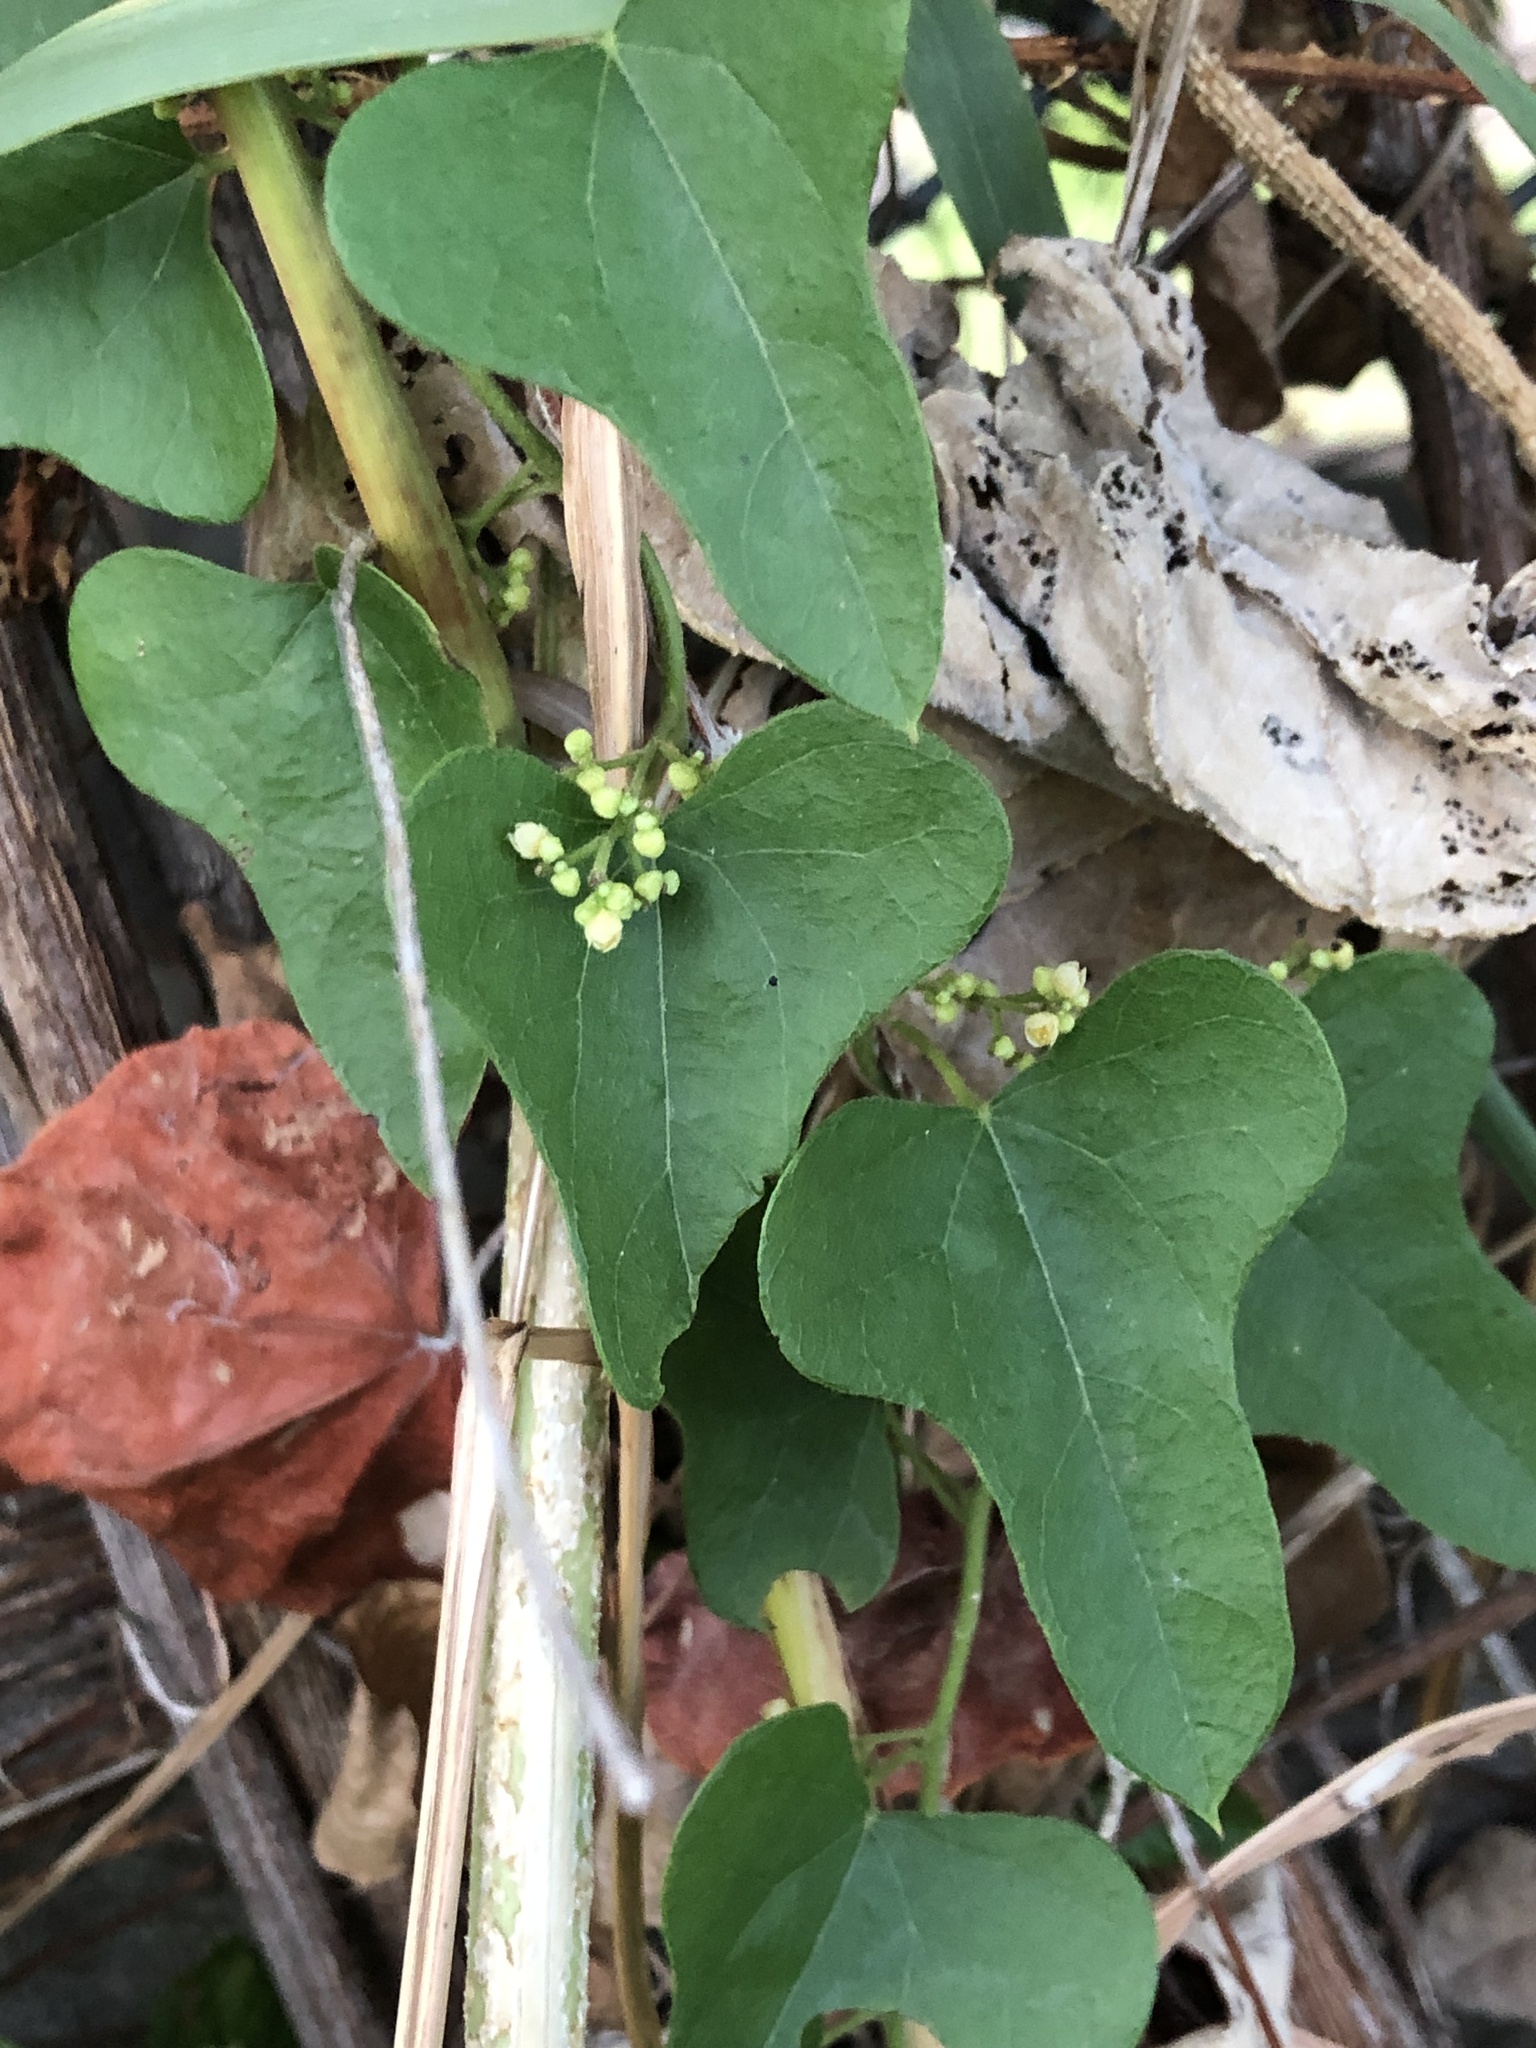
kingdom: Plantae
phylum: Tracheophyta
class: Magnoliopsida
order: Ranunculales
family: Menispermaceae
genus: Cocculus
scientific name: Cocculus carolinus
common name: Carolina moonseed
